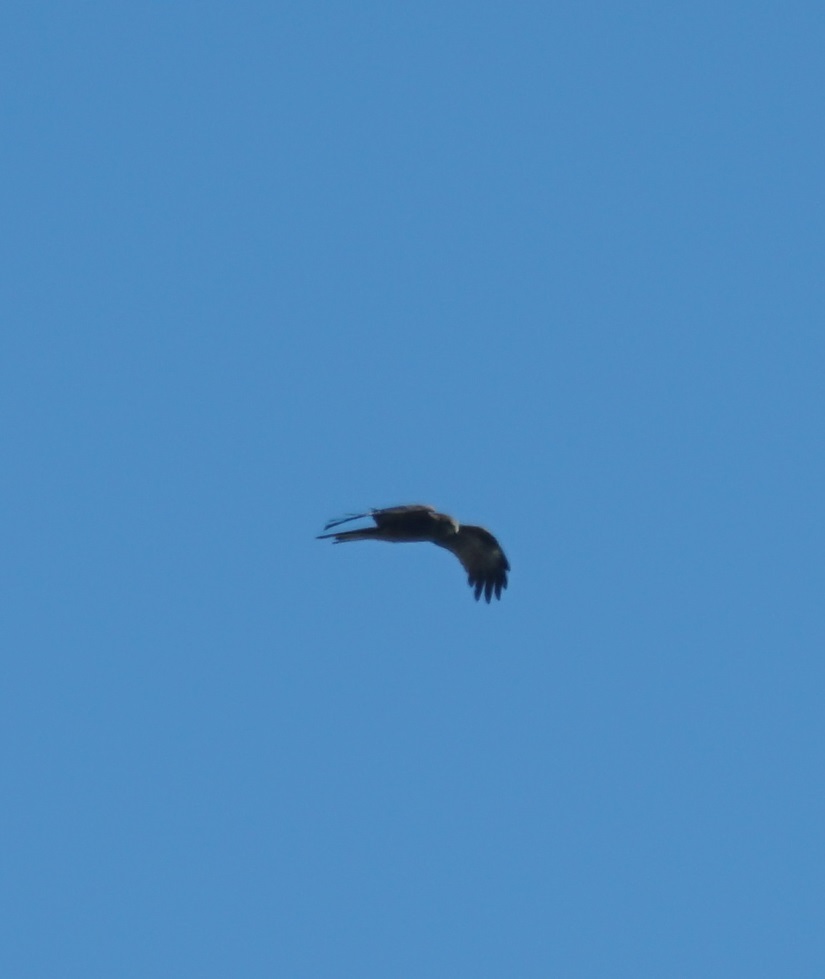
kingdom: Animalia
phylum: Chordata
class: Aves
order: Accipitriformes
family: Accipitridae
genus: Milvus
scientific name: Milvus migrans
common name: Black kite
